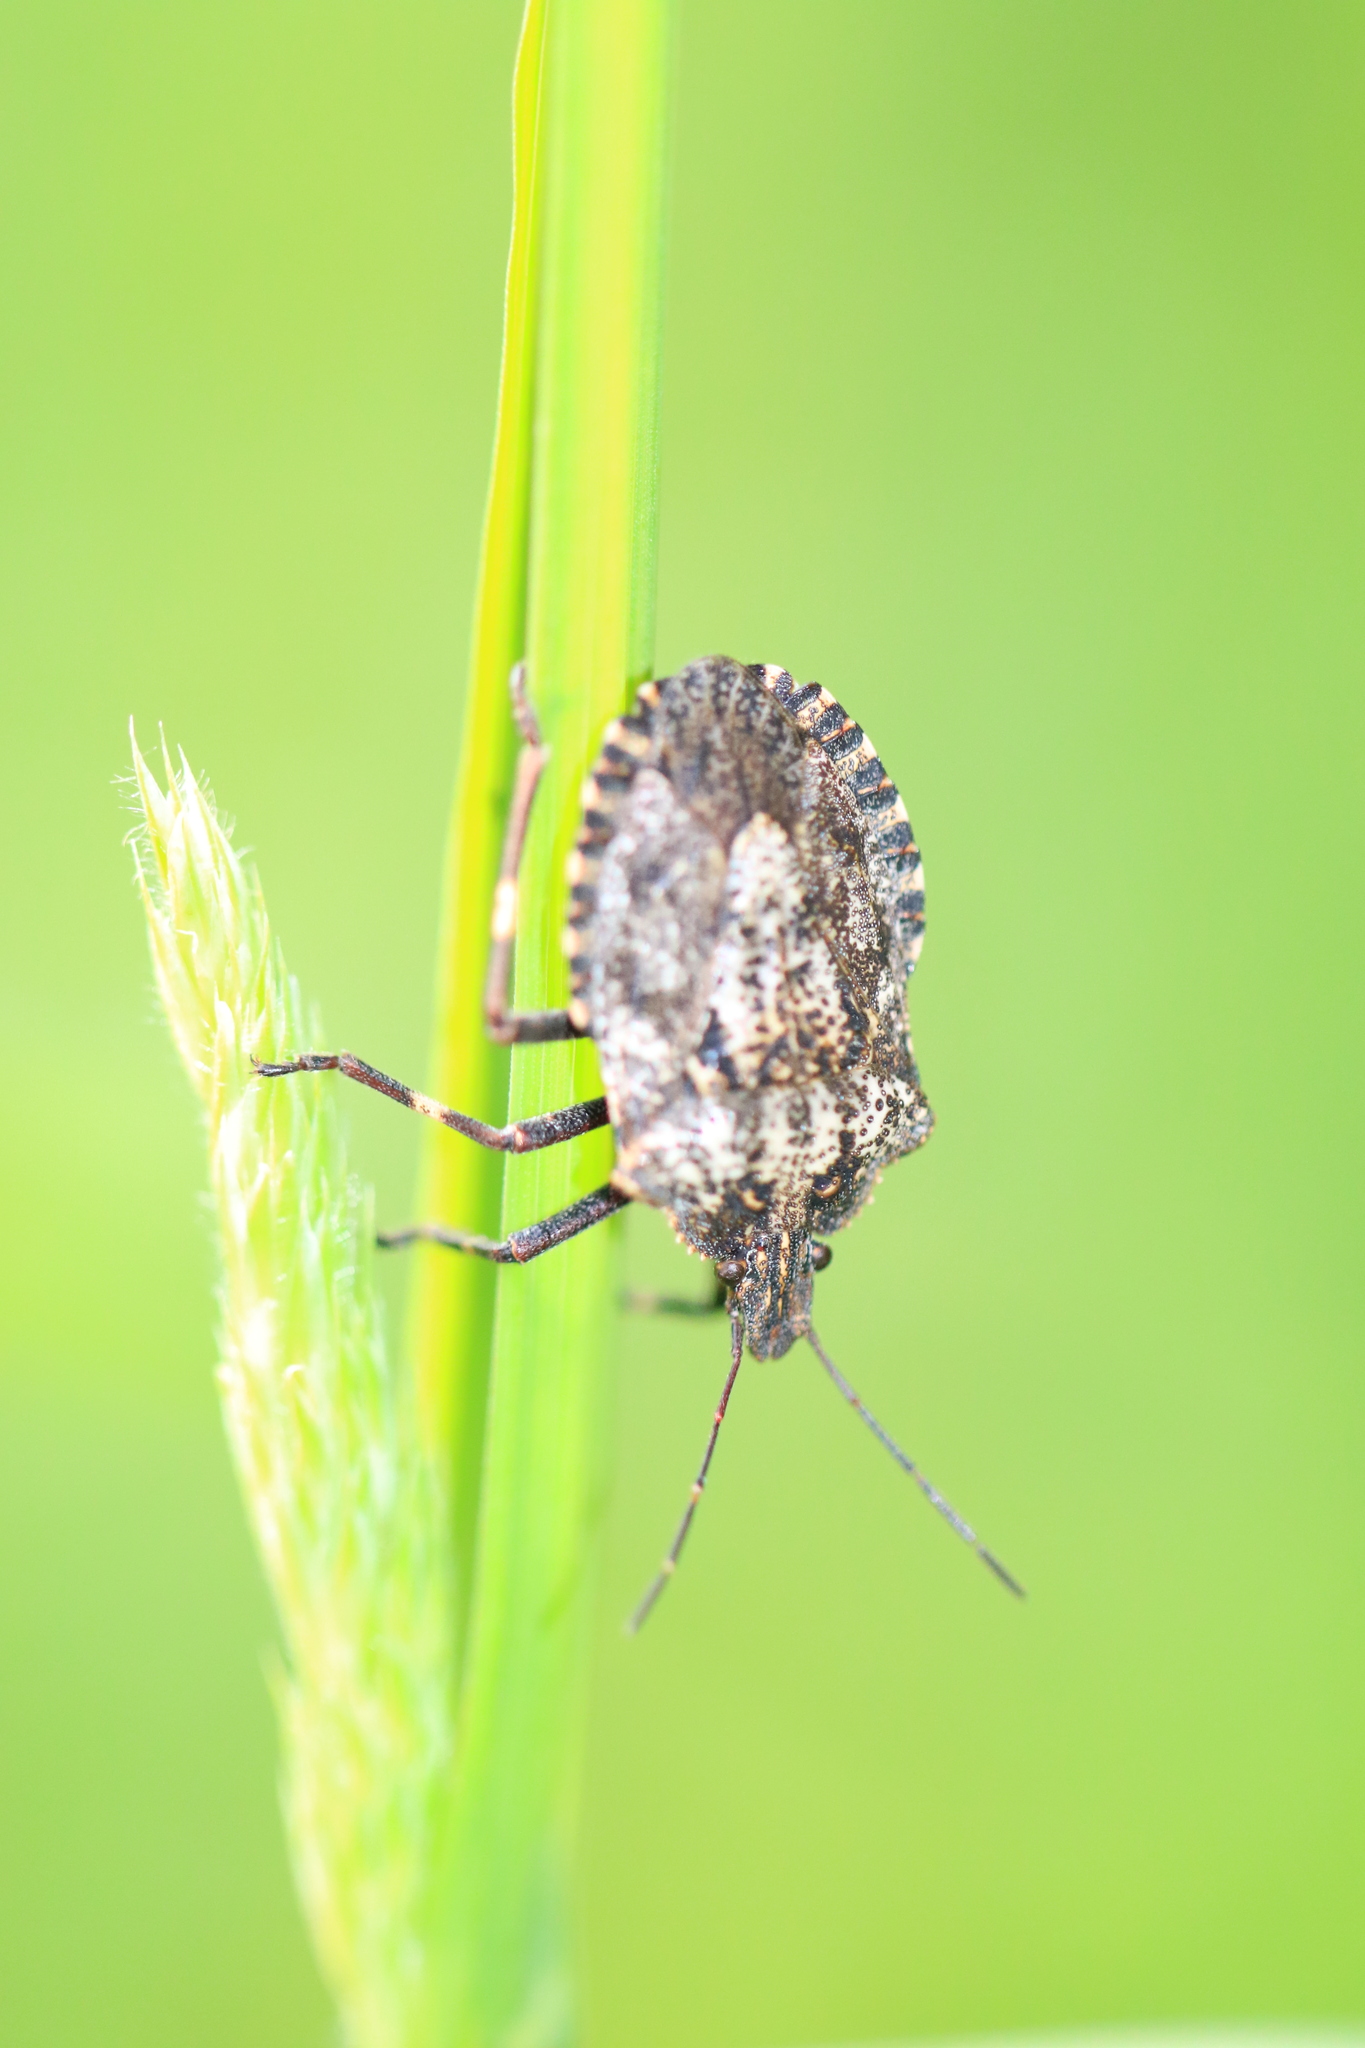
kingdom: Animalia
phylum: Arthropoda
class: Insecta
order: Hemiptera
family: Pentatomidae
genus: Halyomorpha
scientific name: Halyomorpha halys
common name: Brown marmorated stink bug
